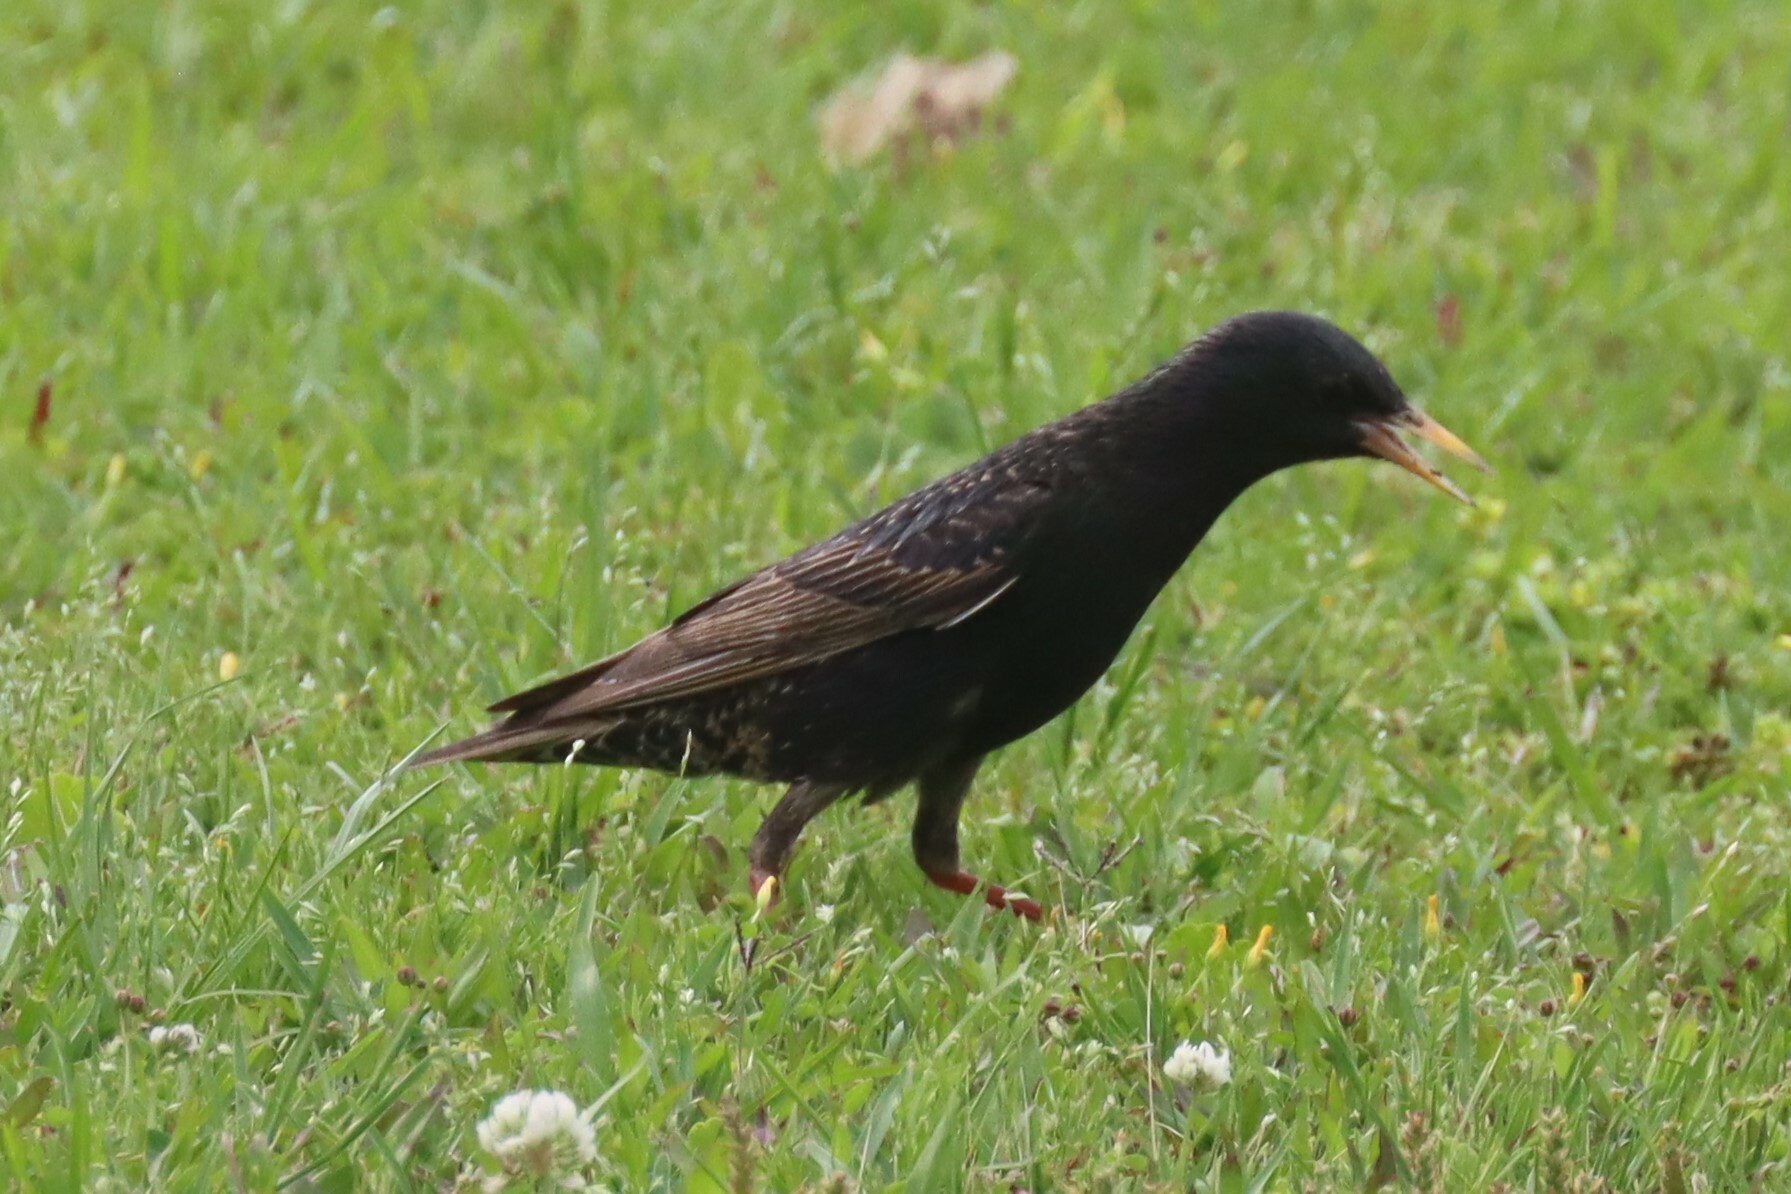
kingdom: Animalia
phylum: Chordata
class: Aves
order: Passeriformes
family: Sturnidae
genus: Sturnus
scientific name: Sturnus vulgaris
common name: Common starling
